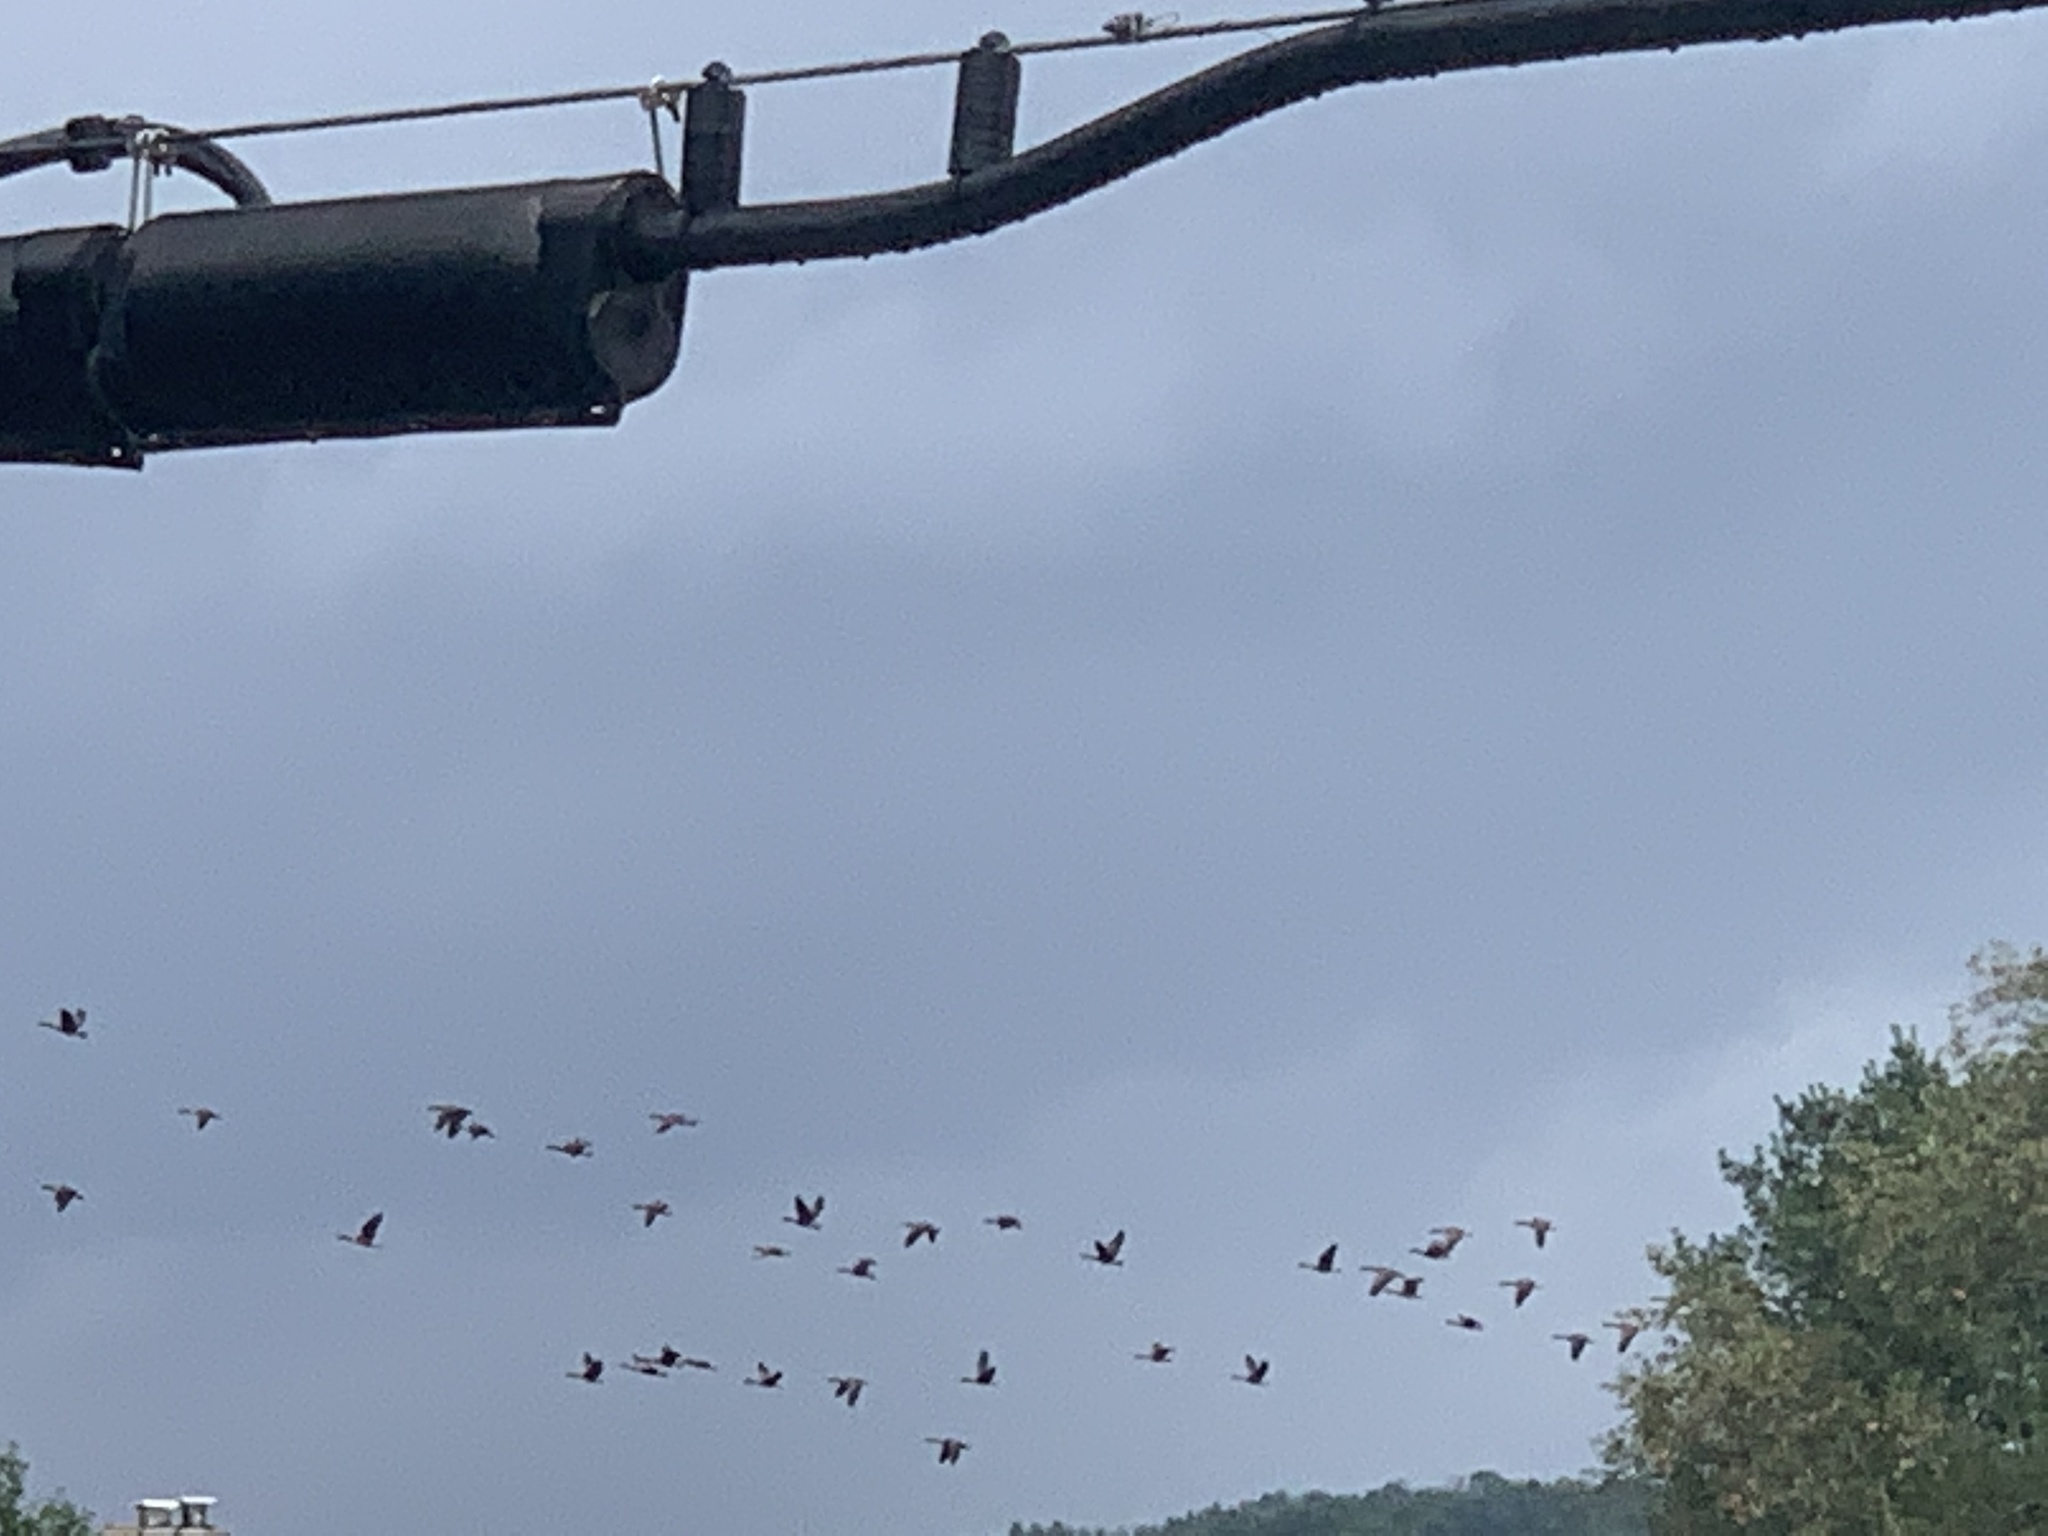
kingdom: Animalia
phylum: Chordata
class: Aves
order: Anseriformes
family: Anatidae
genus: Branta
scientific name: Branta canadensis
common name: Canada goose
